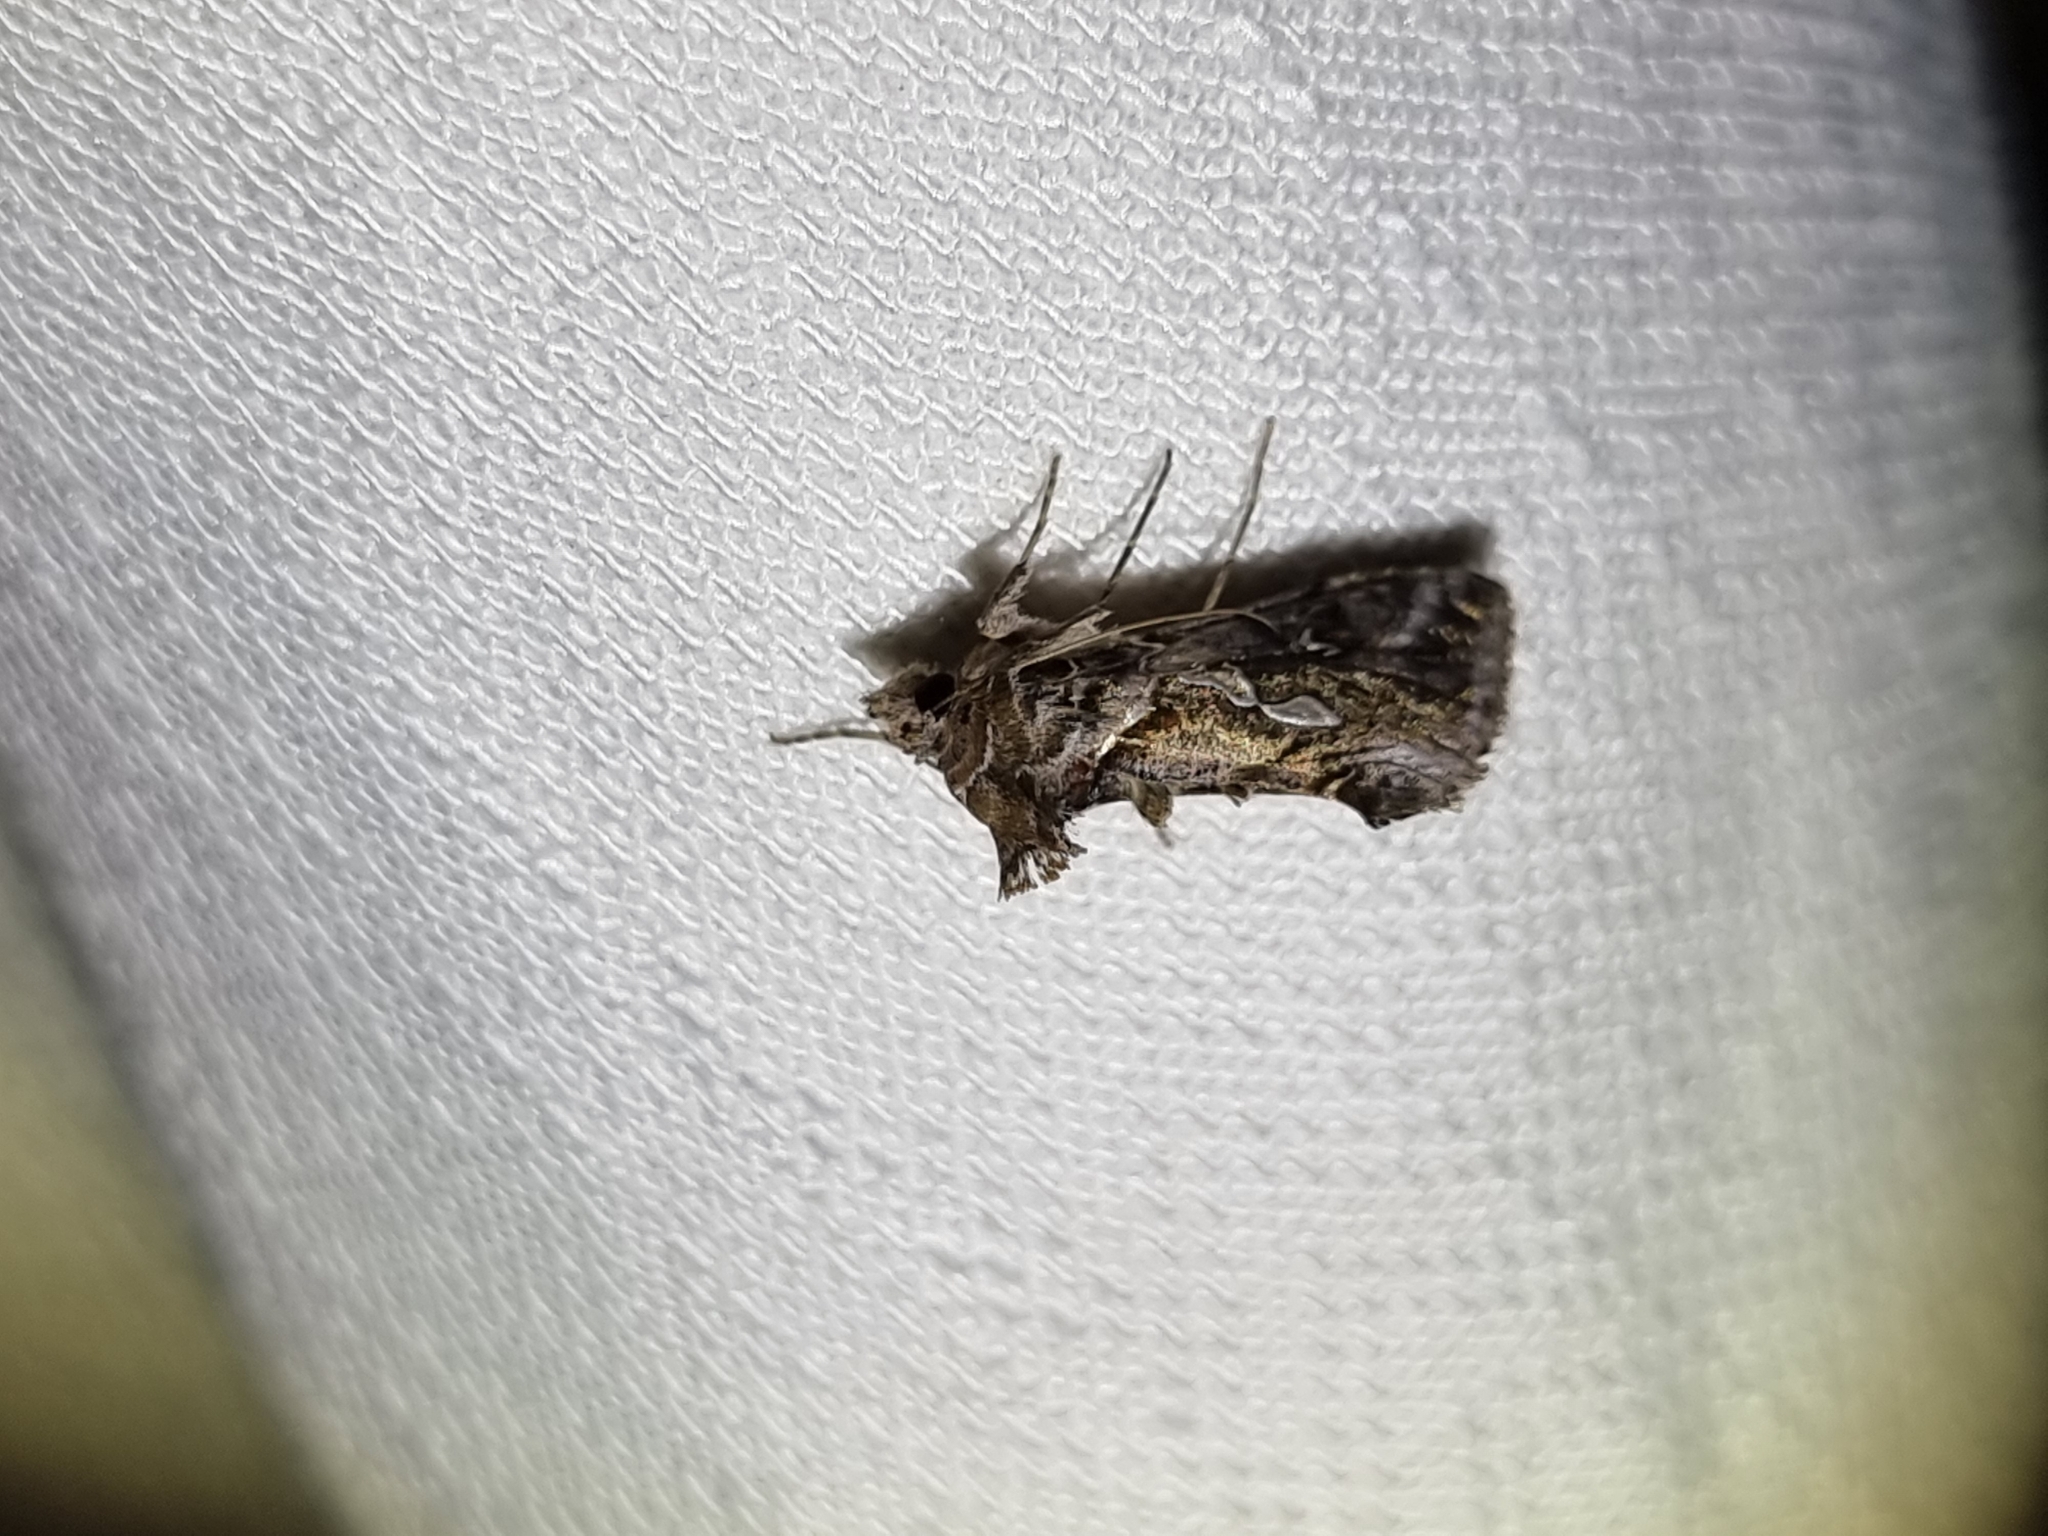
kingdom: Animalia
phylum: Arthropoda
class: Insecta
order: Lepidoptera
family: Noctuidae
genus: Chrysodeixis
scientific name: Chrysodeixis argentifera
